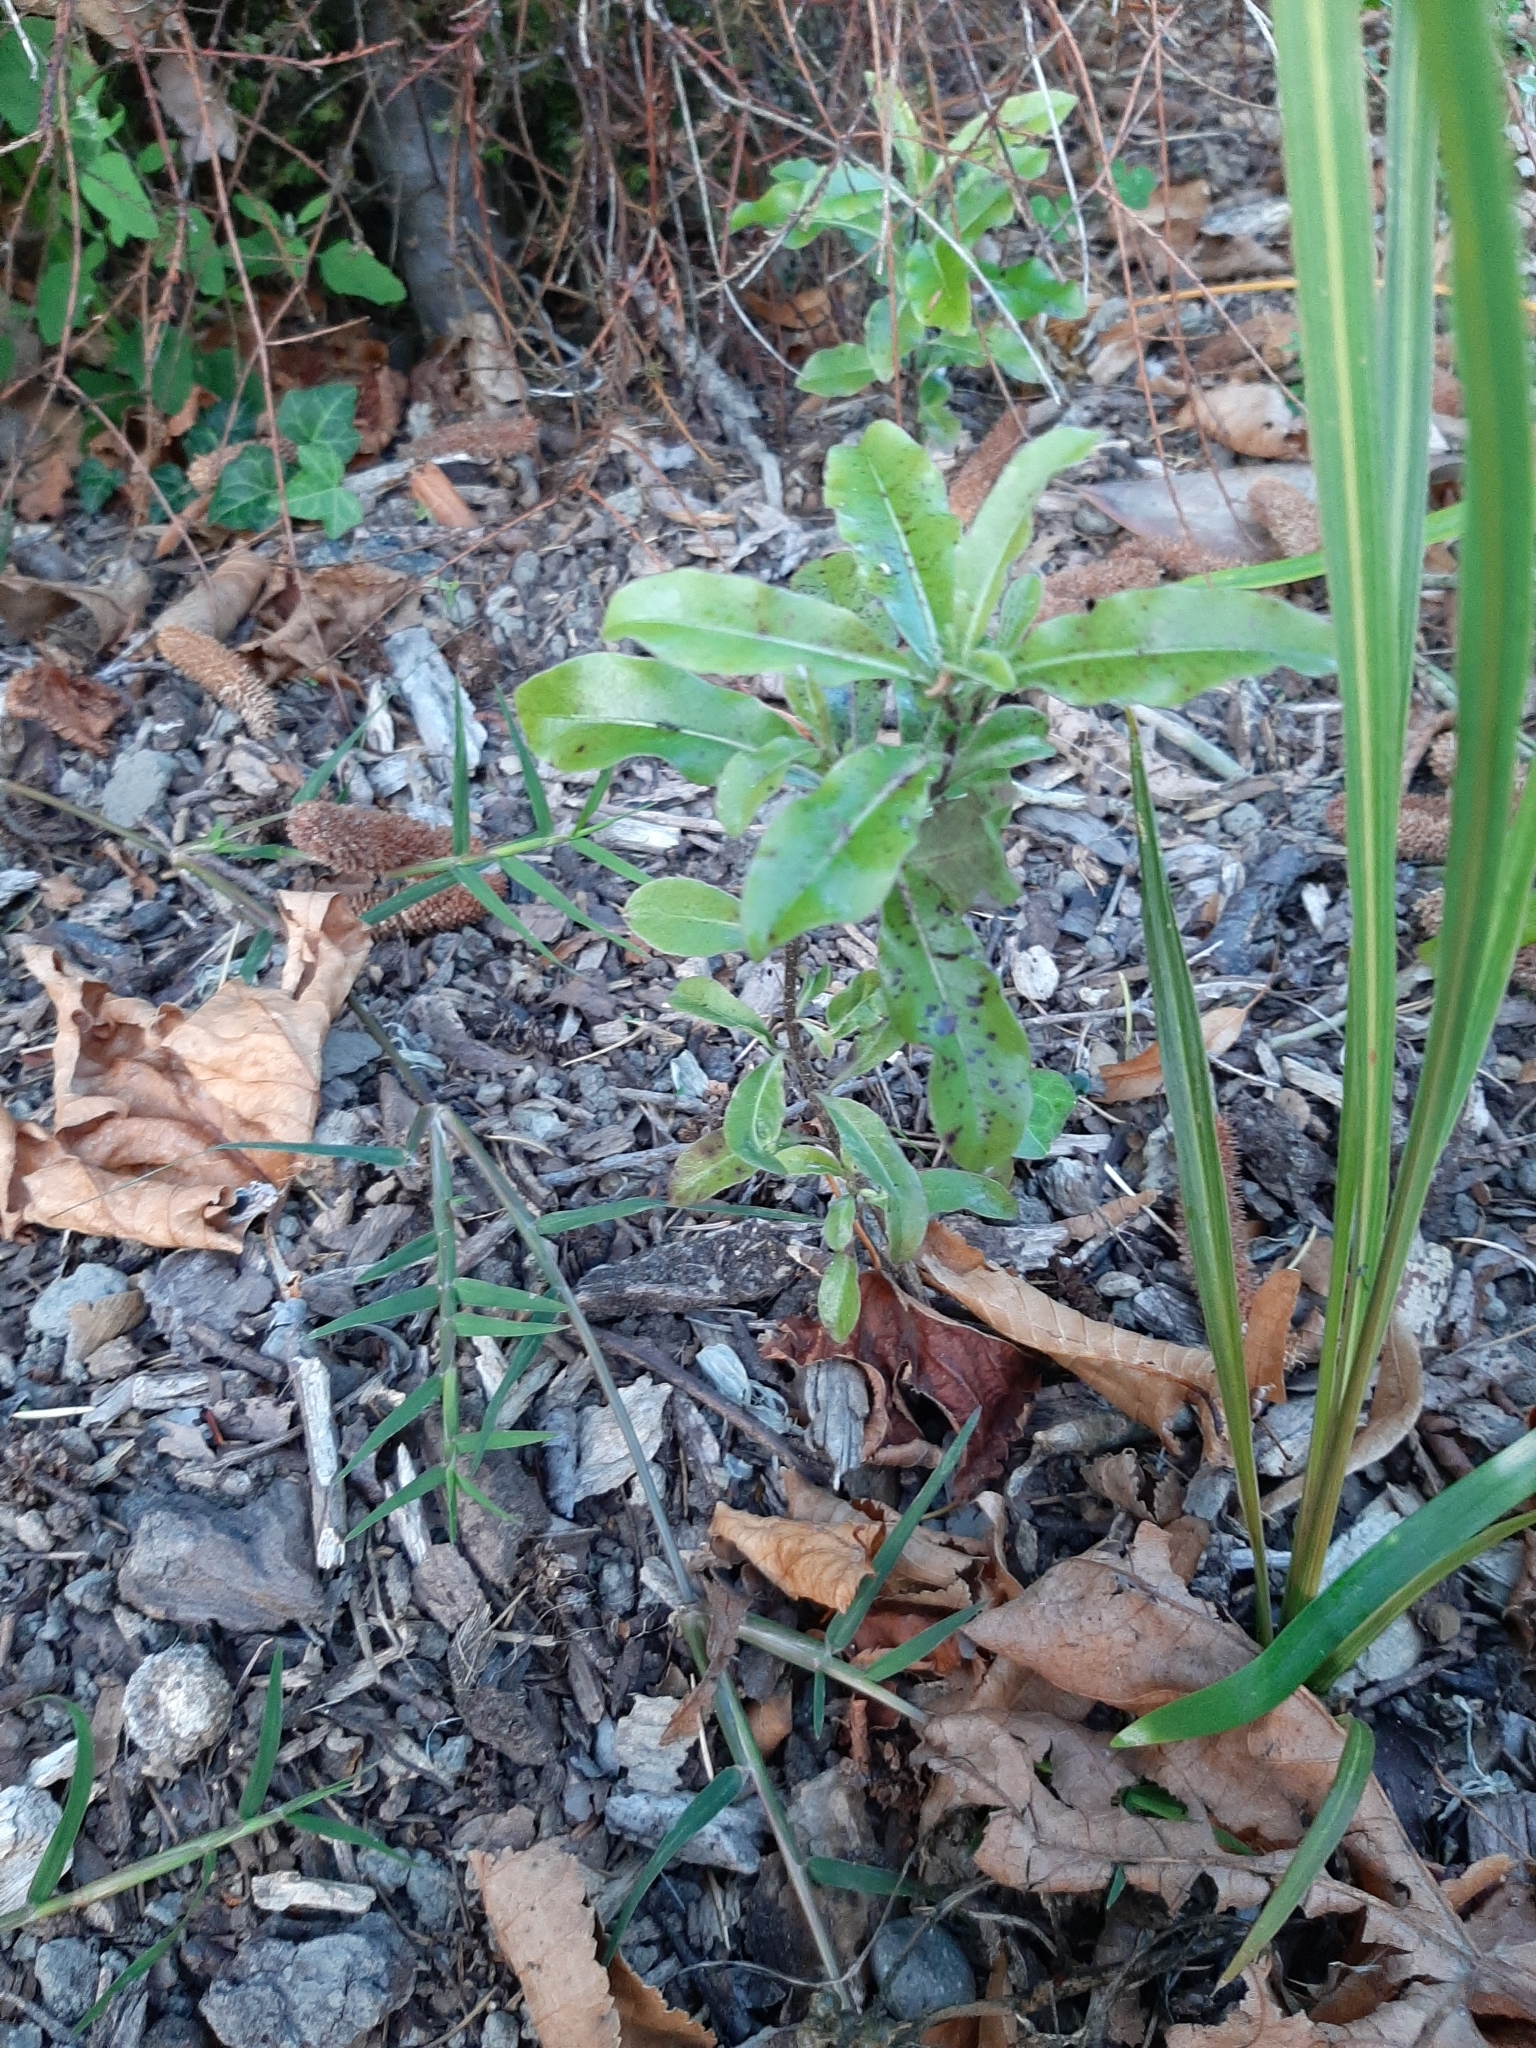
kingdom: Plantae
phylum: Tracheophyta
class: Magnoliopsida
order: Apiales
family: Pittosporaceae
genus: Pittosporum
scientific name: Pittosporum eugenioides
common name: Lemonwood
